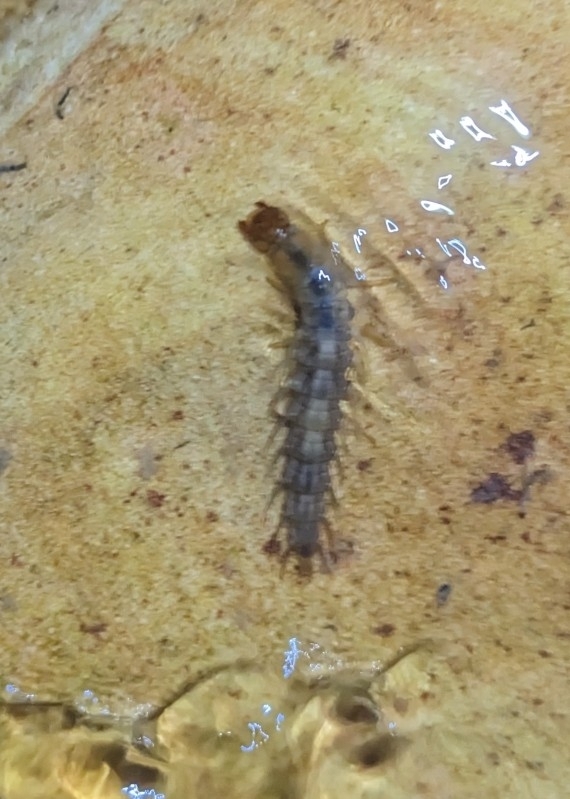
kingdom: Animalia
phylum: Arthropoda
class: Insecta
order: Megaloptera
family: Corydalidae
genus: Neohermes
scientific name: Neohermes filicornis
